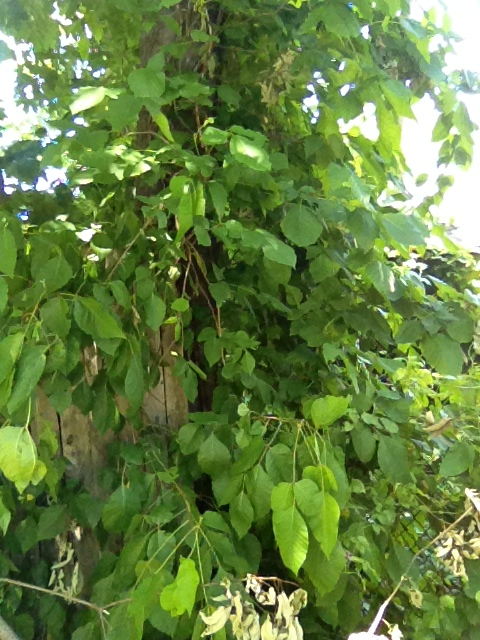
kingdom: Plantae
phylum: Tracheophyta
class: Magnoliopsida
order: Sapindales
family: Anacardiaceae
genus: Toxicodendron
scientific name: Toxicodendron radicans
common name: Poison ivy
